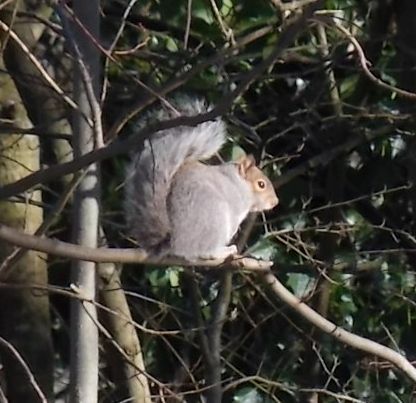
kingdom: Animalia
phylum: Chordata
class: Mammalia
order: Rodentia
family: Sciuridae
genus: Sciurus
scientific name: Sciurus carolinensis
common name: Eastern gray squirrel
